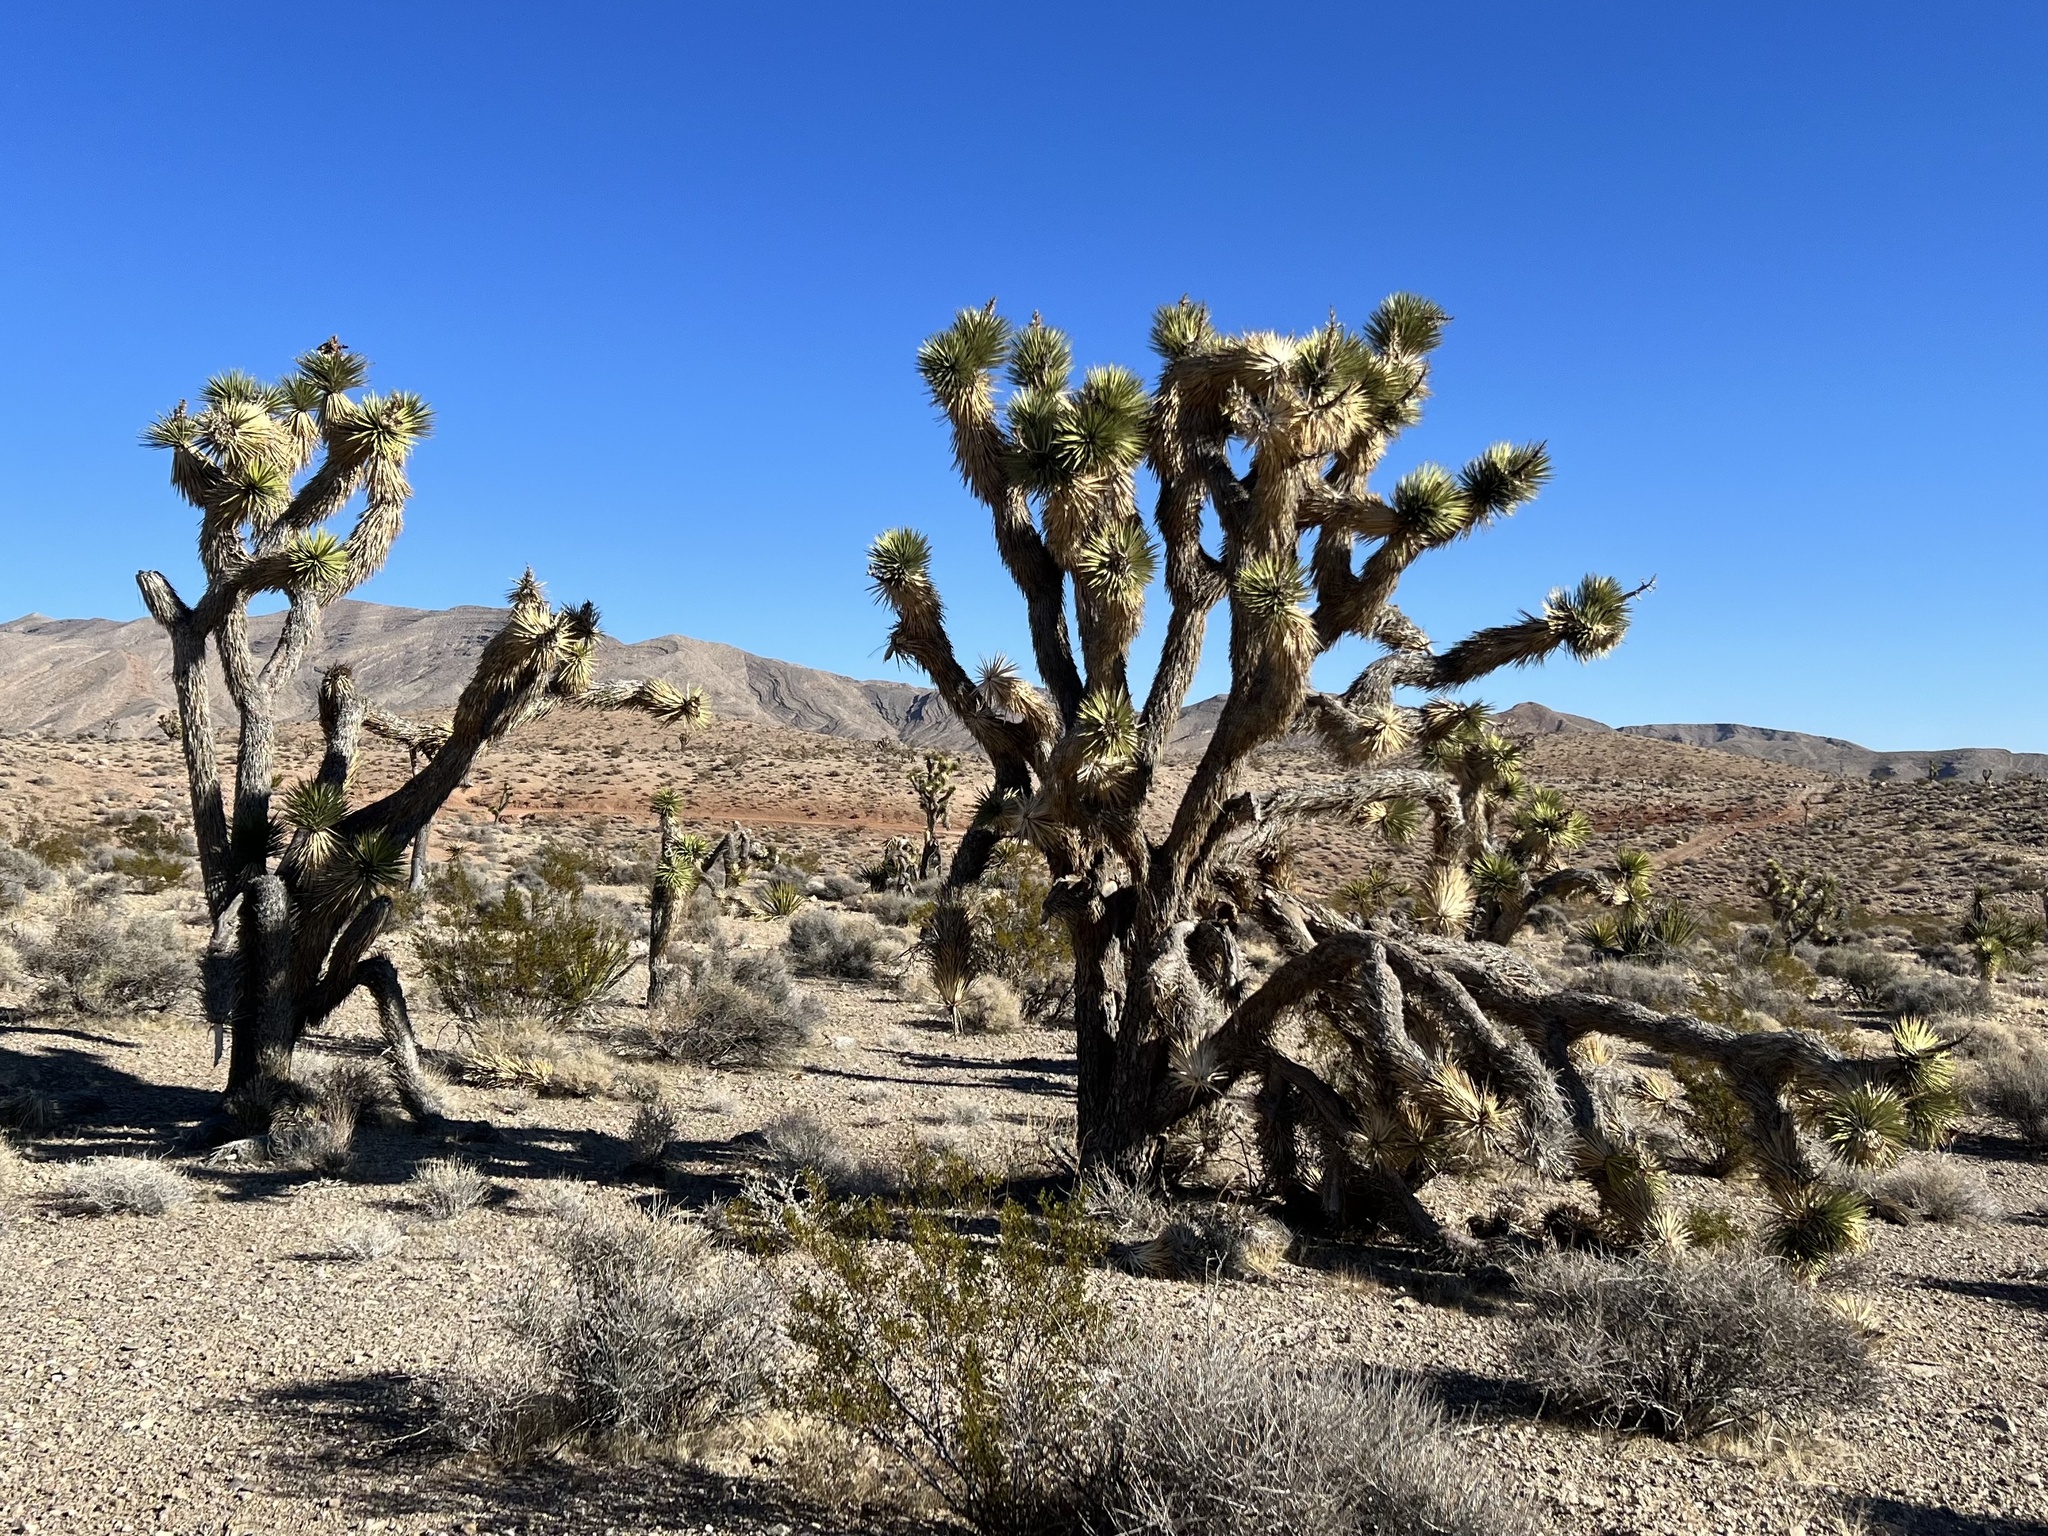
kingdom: Plantae
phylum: Tracheophyta
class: Liliopsida
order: Asparagales
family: Asparagaceae
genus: Yucca
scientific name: Yucca brevifolia
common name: Joshua tree
